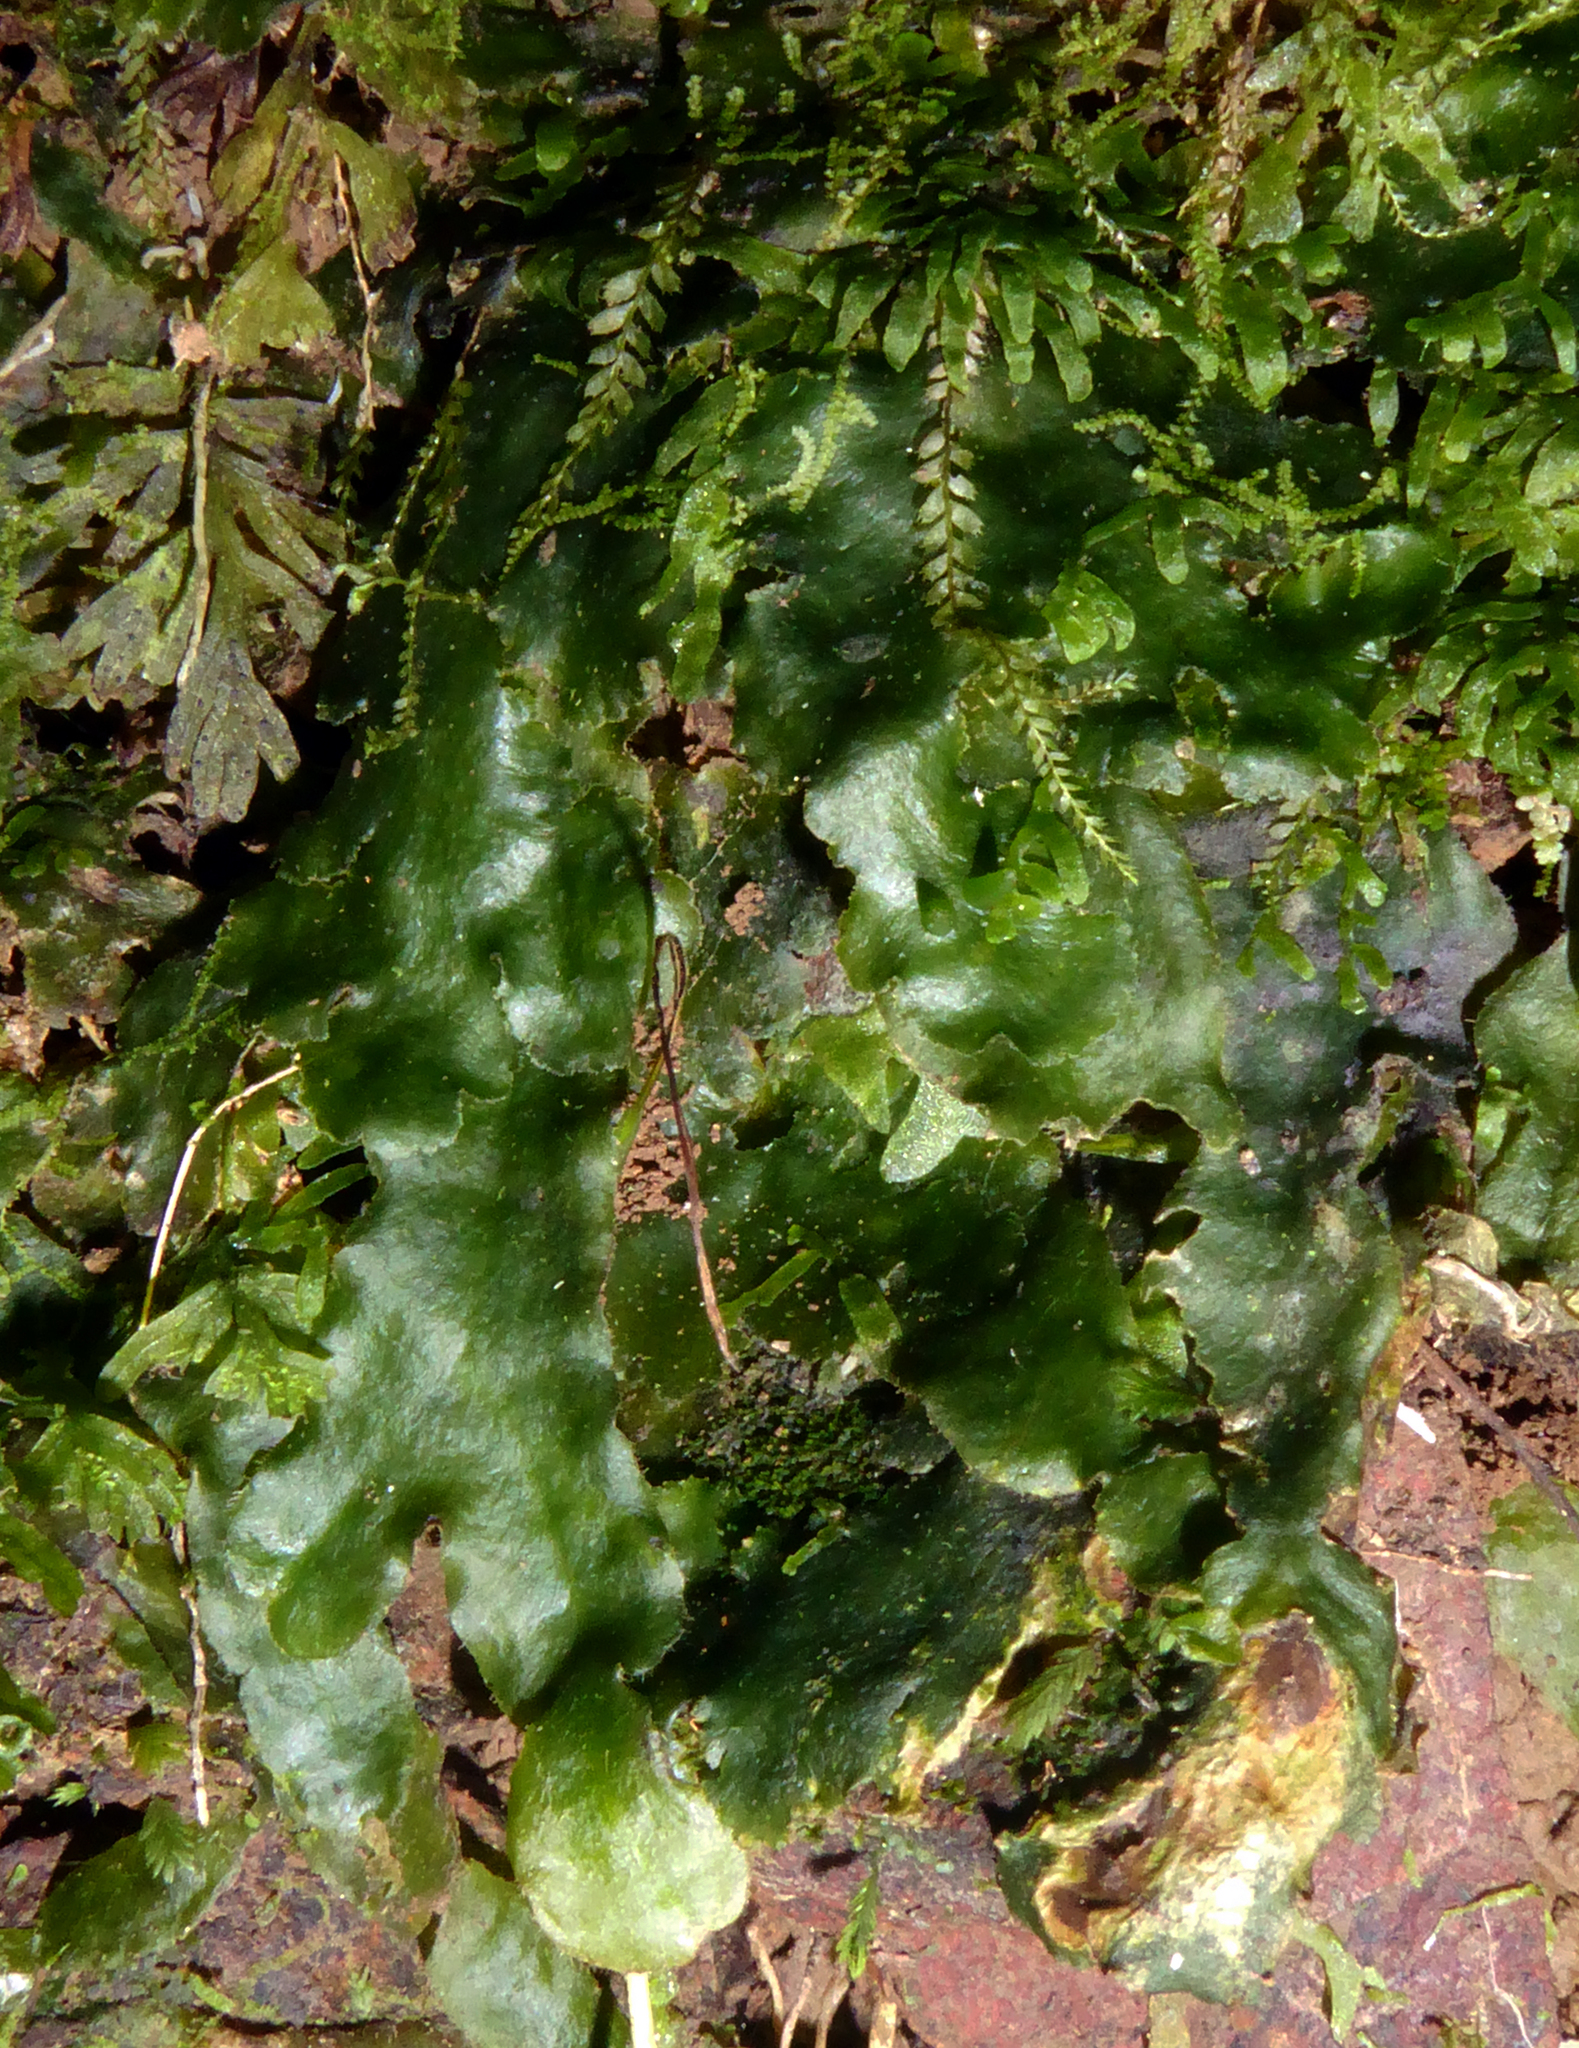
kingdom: Plantae
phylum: Marchantiophyta
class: Marchantiopsida
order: Marchantiales
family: Dumortieraceae
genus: Dumortiera
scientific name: Dumortiera hirsuta
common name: Dumortier's liverwort
